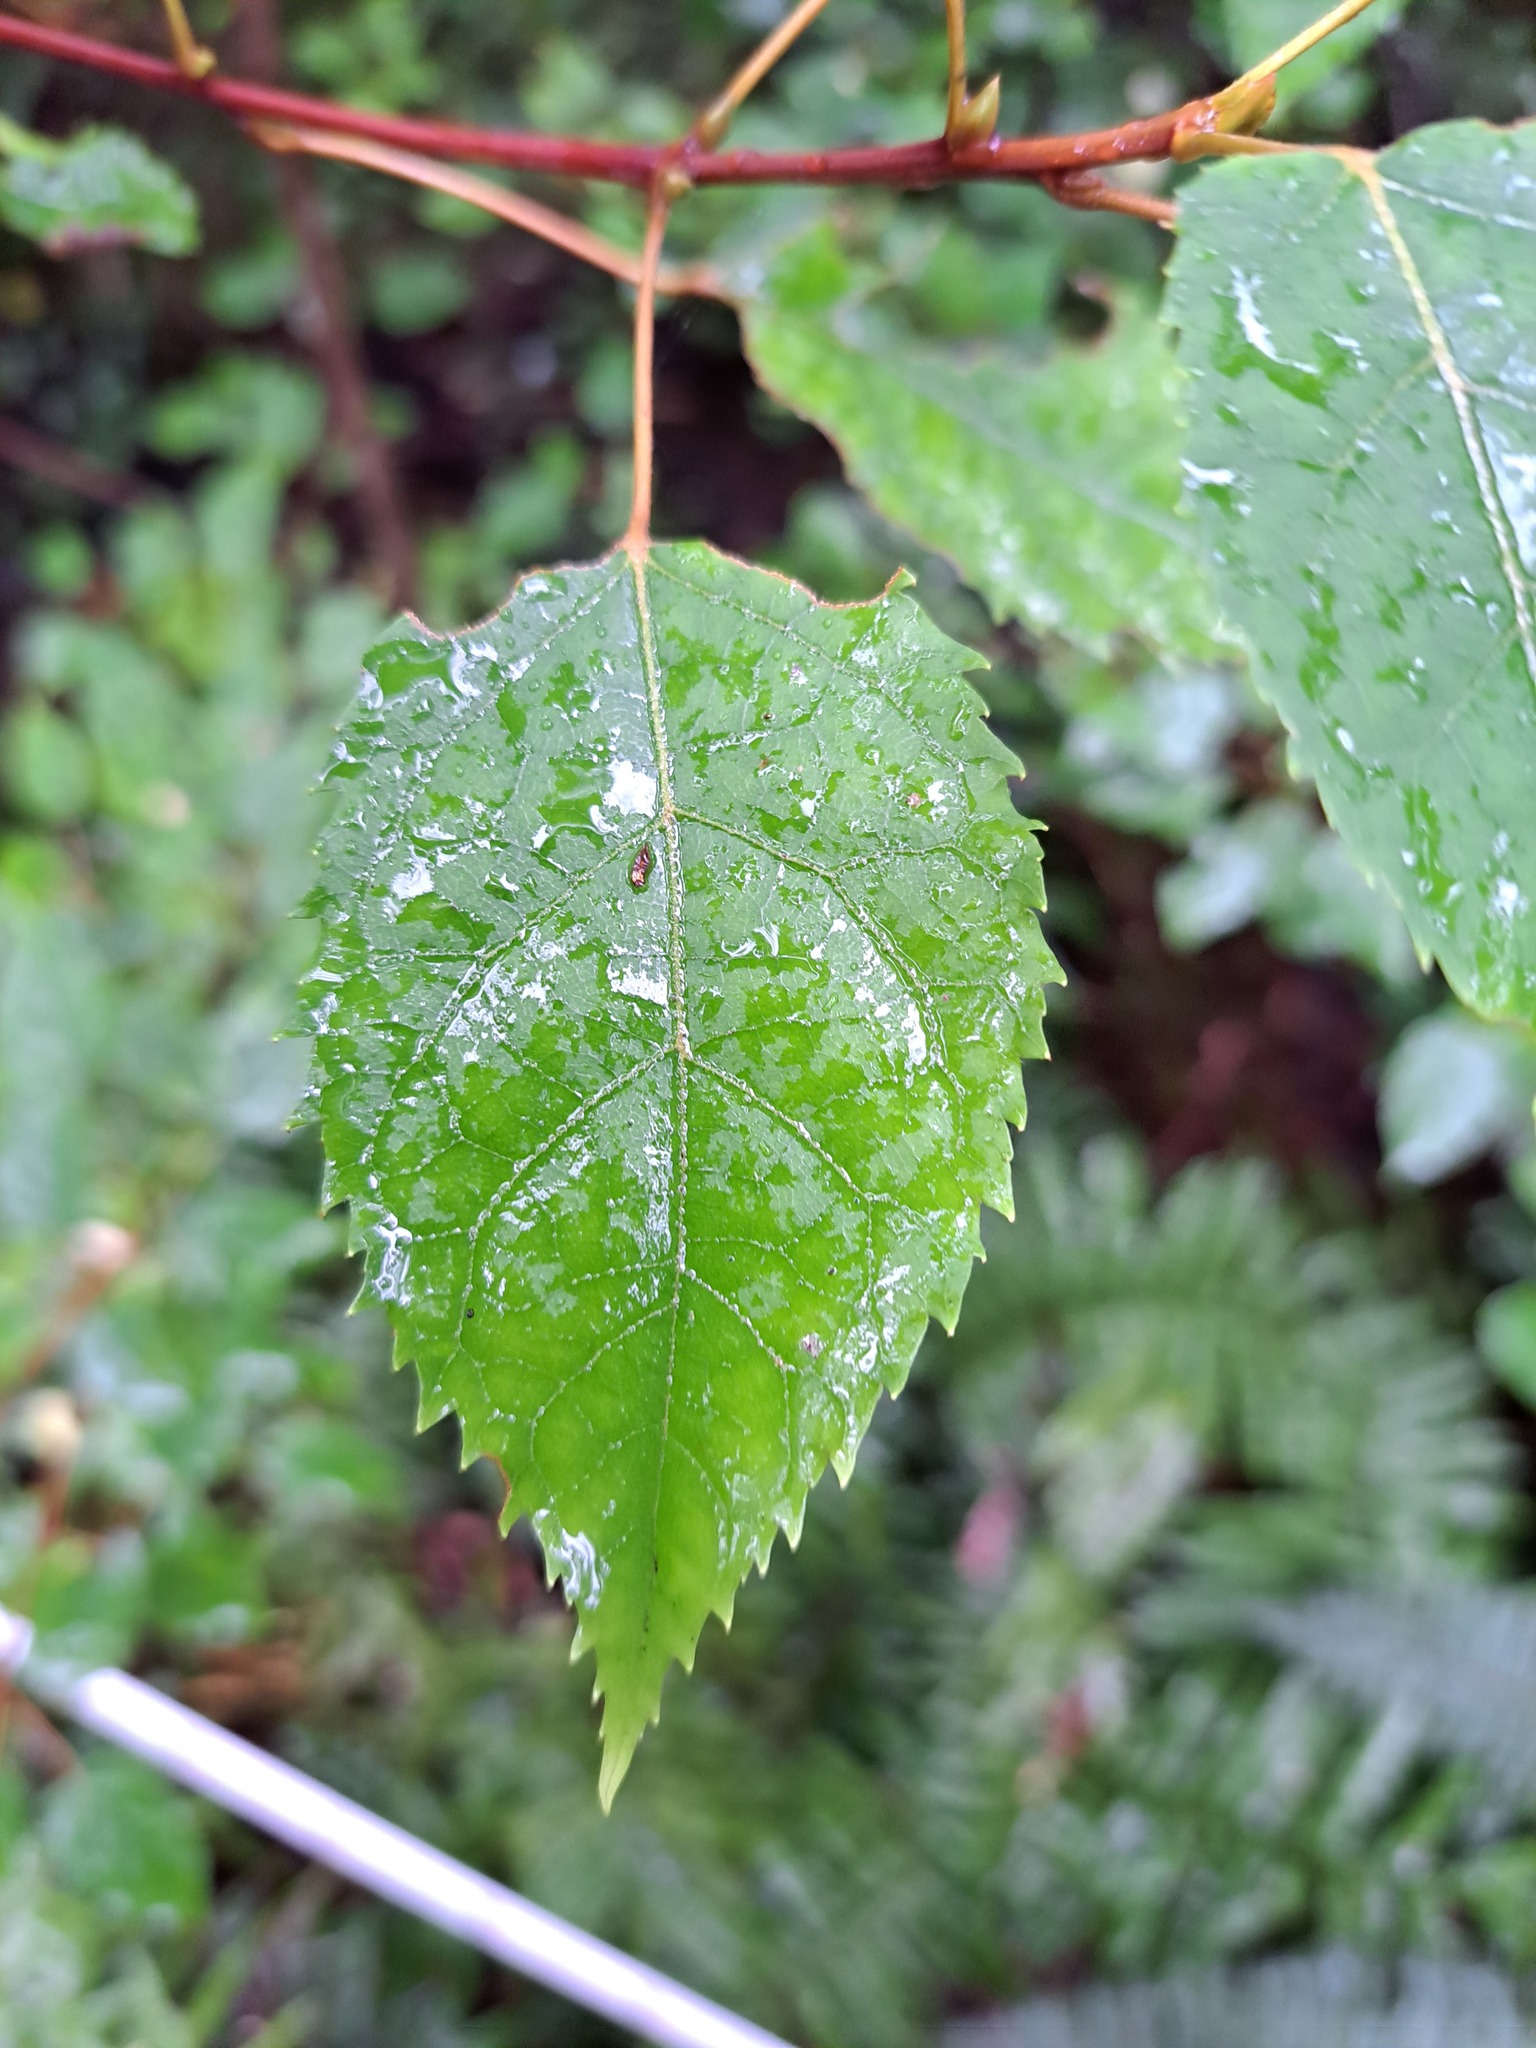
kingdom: Plantae
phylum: Tracheophyta
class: Magnoliopsida
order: Oxalidales
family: Elaeocarpaceae
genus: Aristotelia
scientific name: Aristotelia serrata
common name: New zealand wineberry
